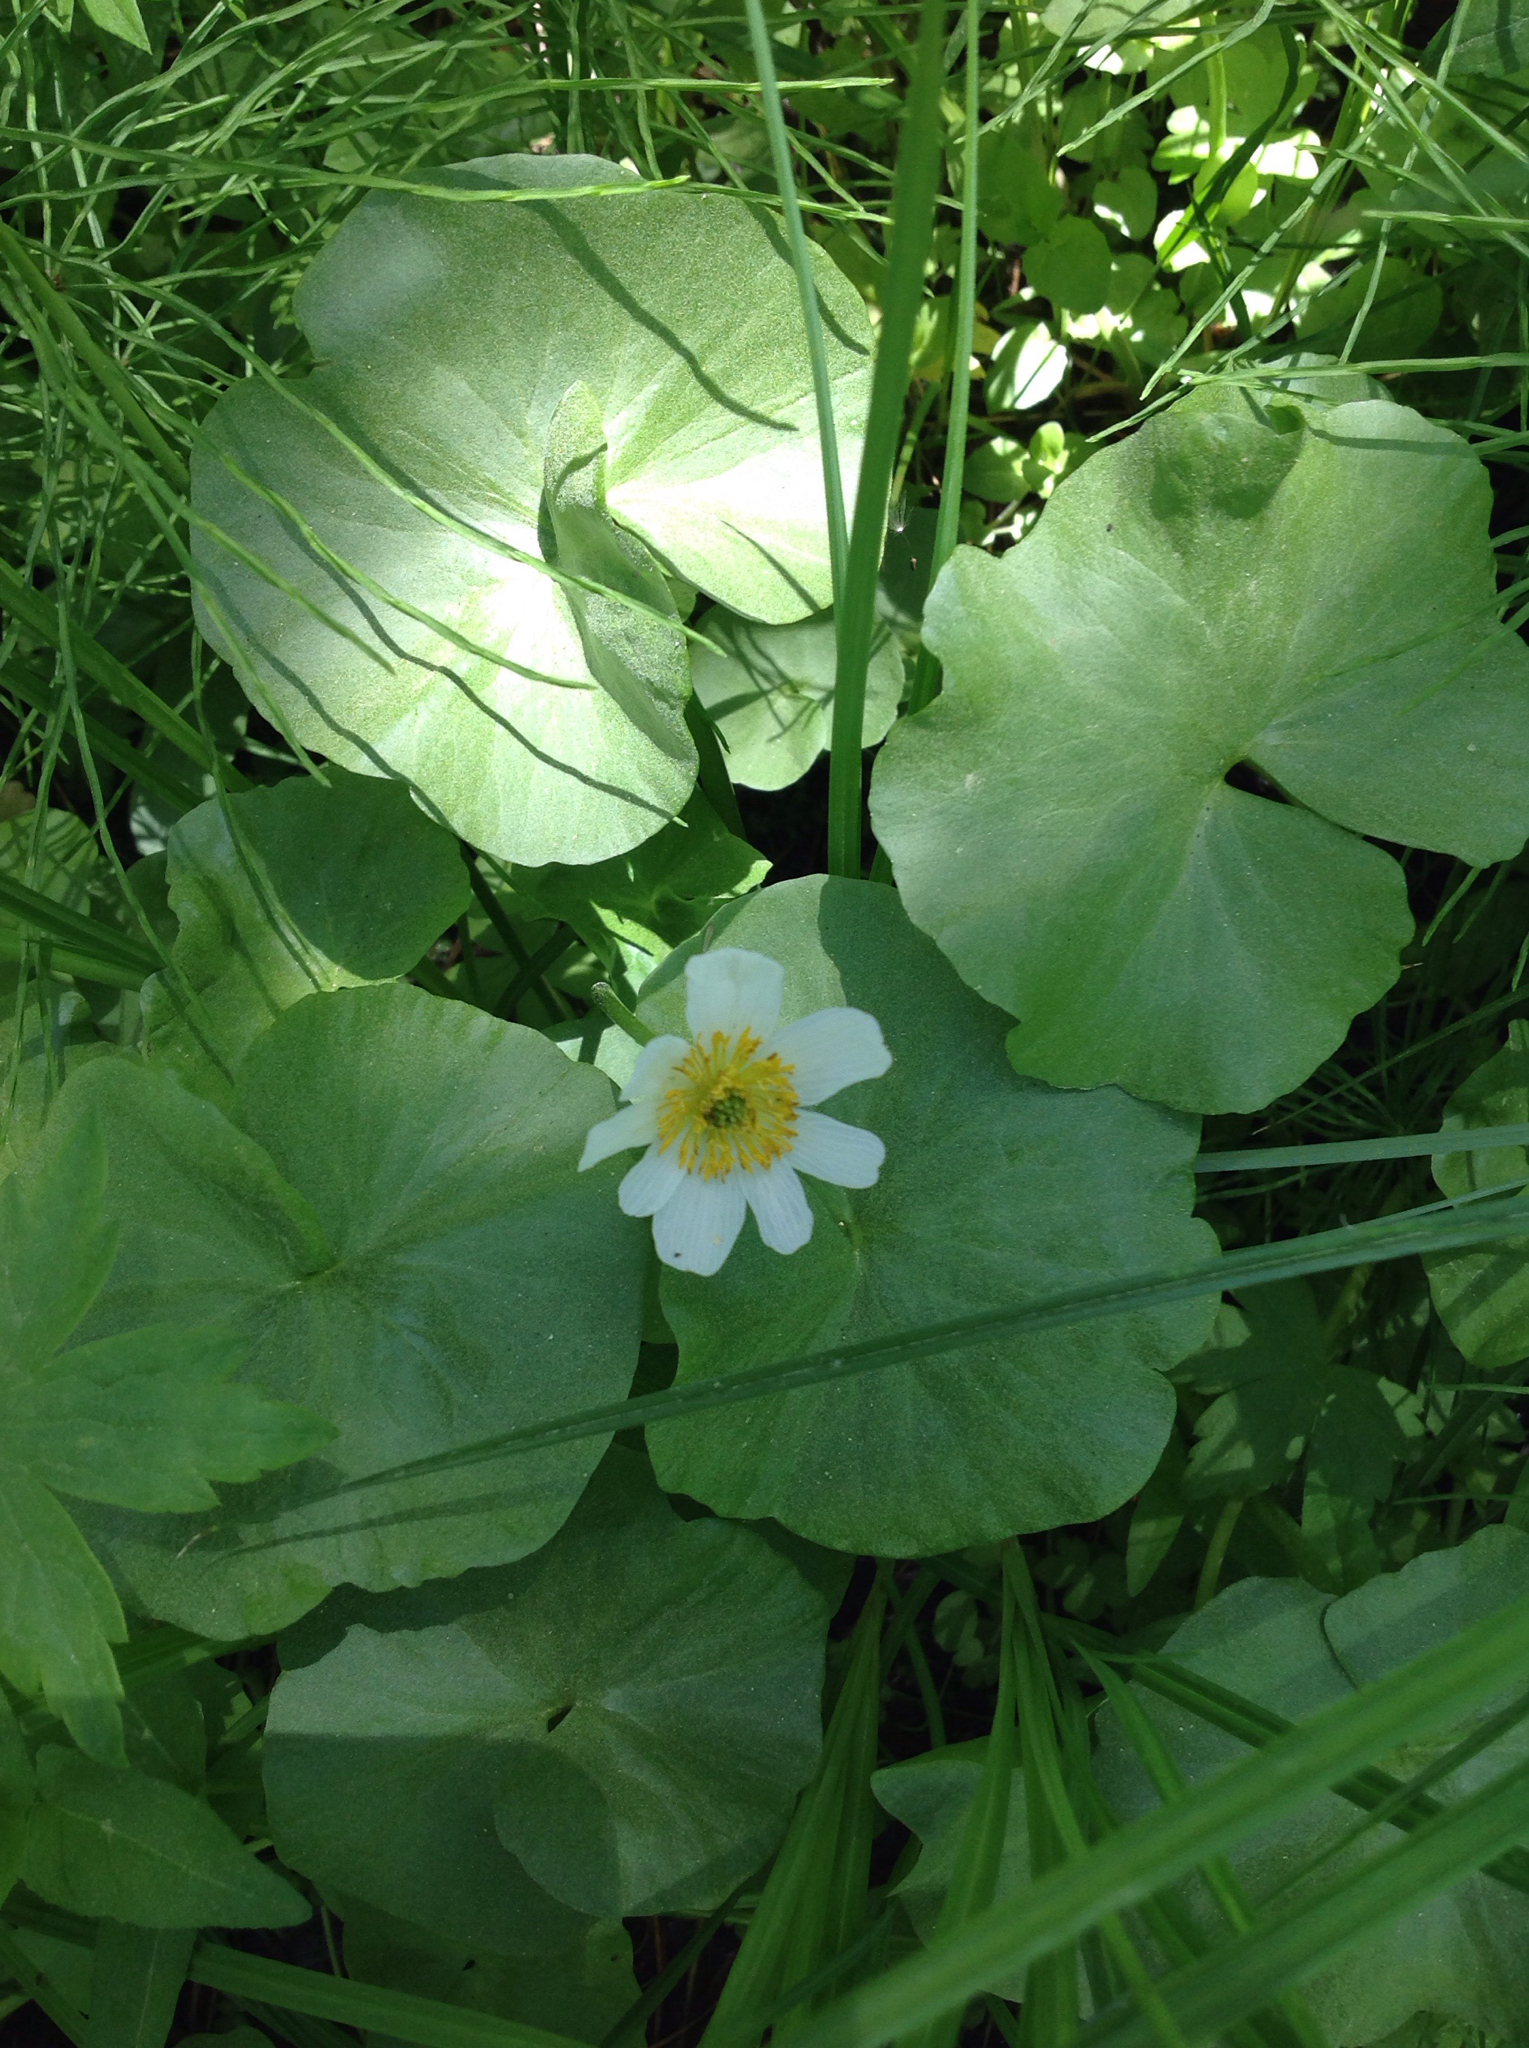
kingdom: Plantae
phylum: Tracheophyta
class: Magnoliopsida
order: Ranunculales
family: Ranunculaceae
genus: Caltha
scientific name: Caltha leptosepala
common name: Elkslip
